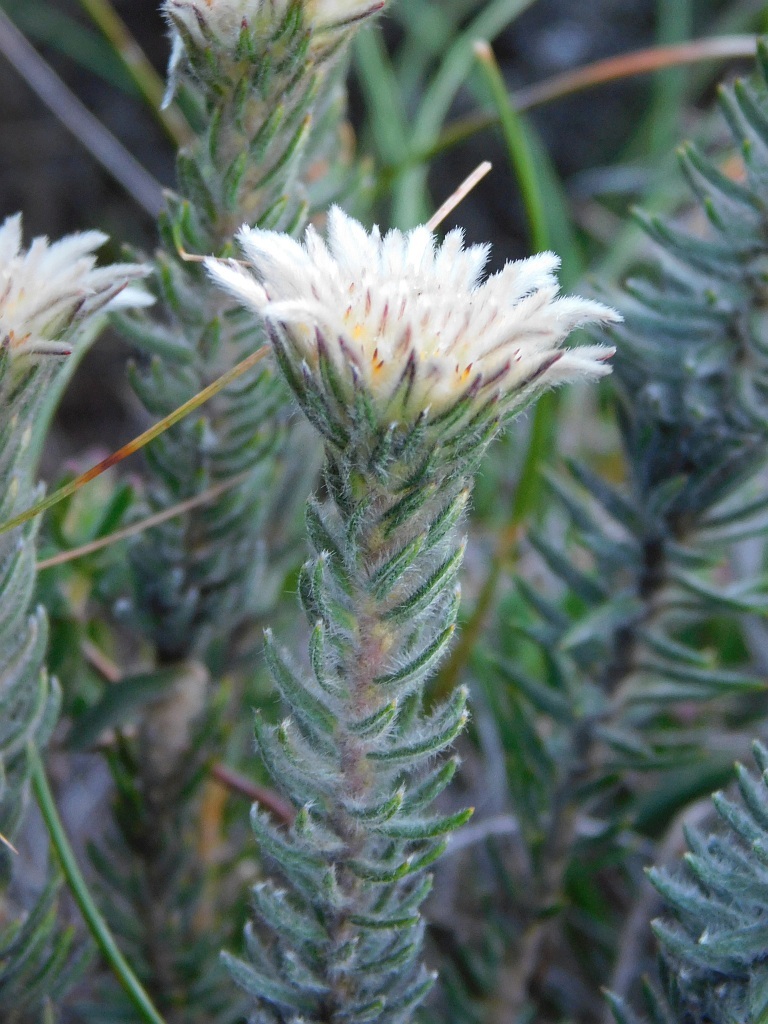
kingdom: Plantae
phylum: Tracheophyta
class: Magnoliopsida
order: Rosales
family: Rhamnaceae
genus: Phylica
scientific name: Phylica calcarata
